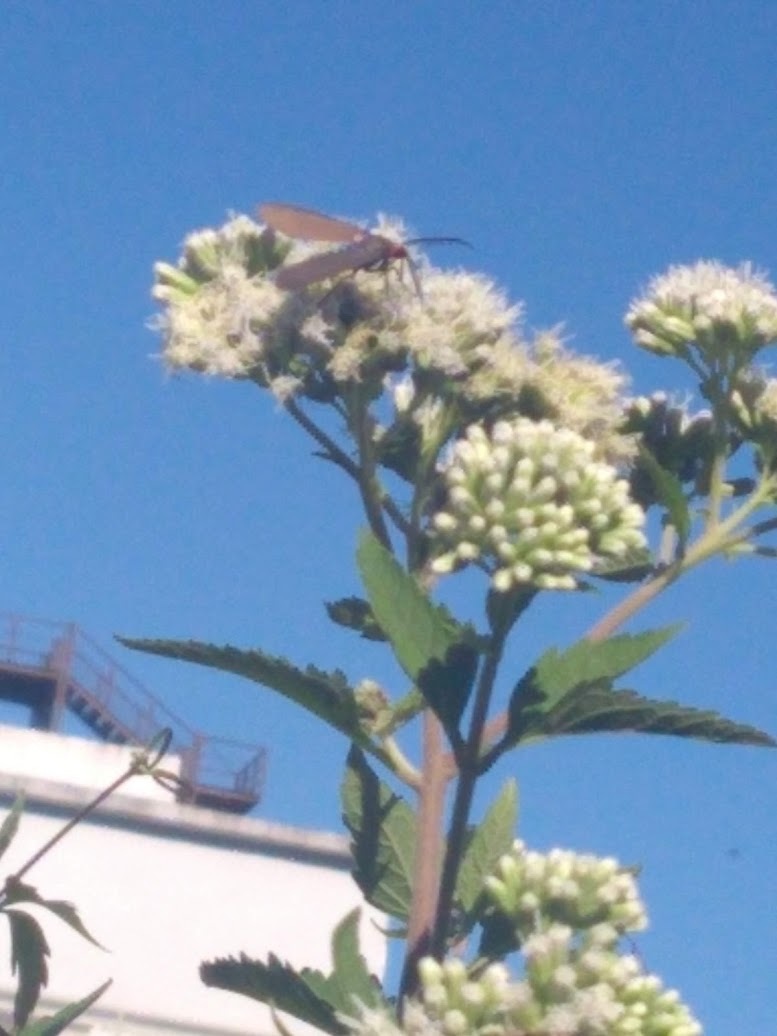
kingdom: Animalia
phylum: Arthropoda
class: Insecta
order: Lepidoptera
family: Erebidae
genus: Ctenucha
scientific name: Ctenucha rubriceps
